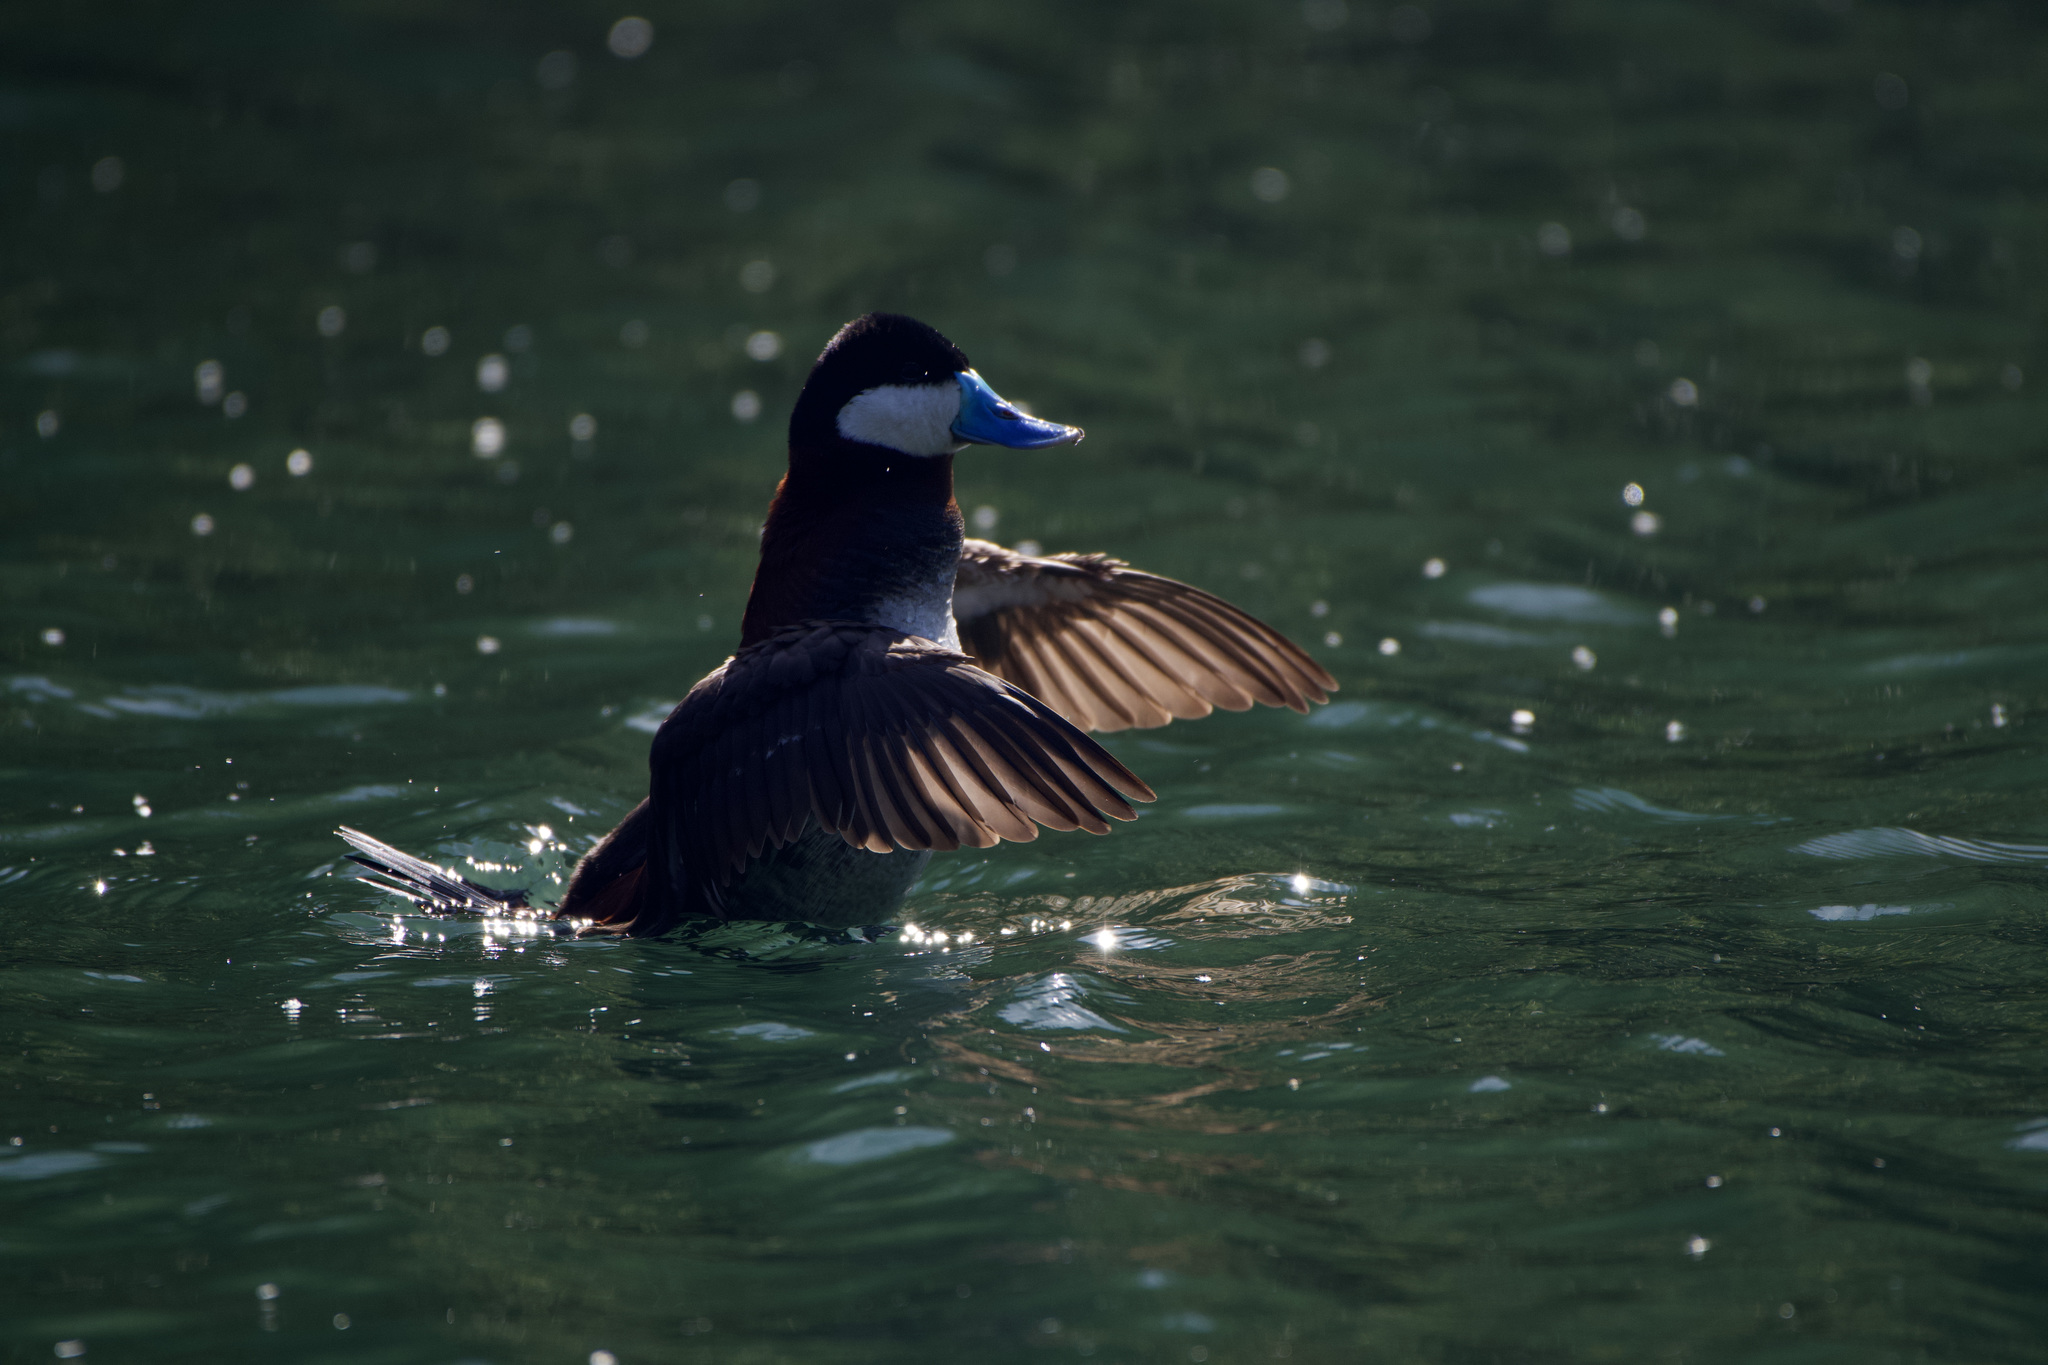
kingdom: Animalia
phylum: Chordata
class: Aves
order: Anseriformes
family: Anatidae
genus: Oxyura
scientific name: Oxyura jamaicensis
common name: Ruddy duck
